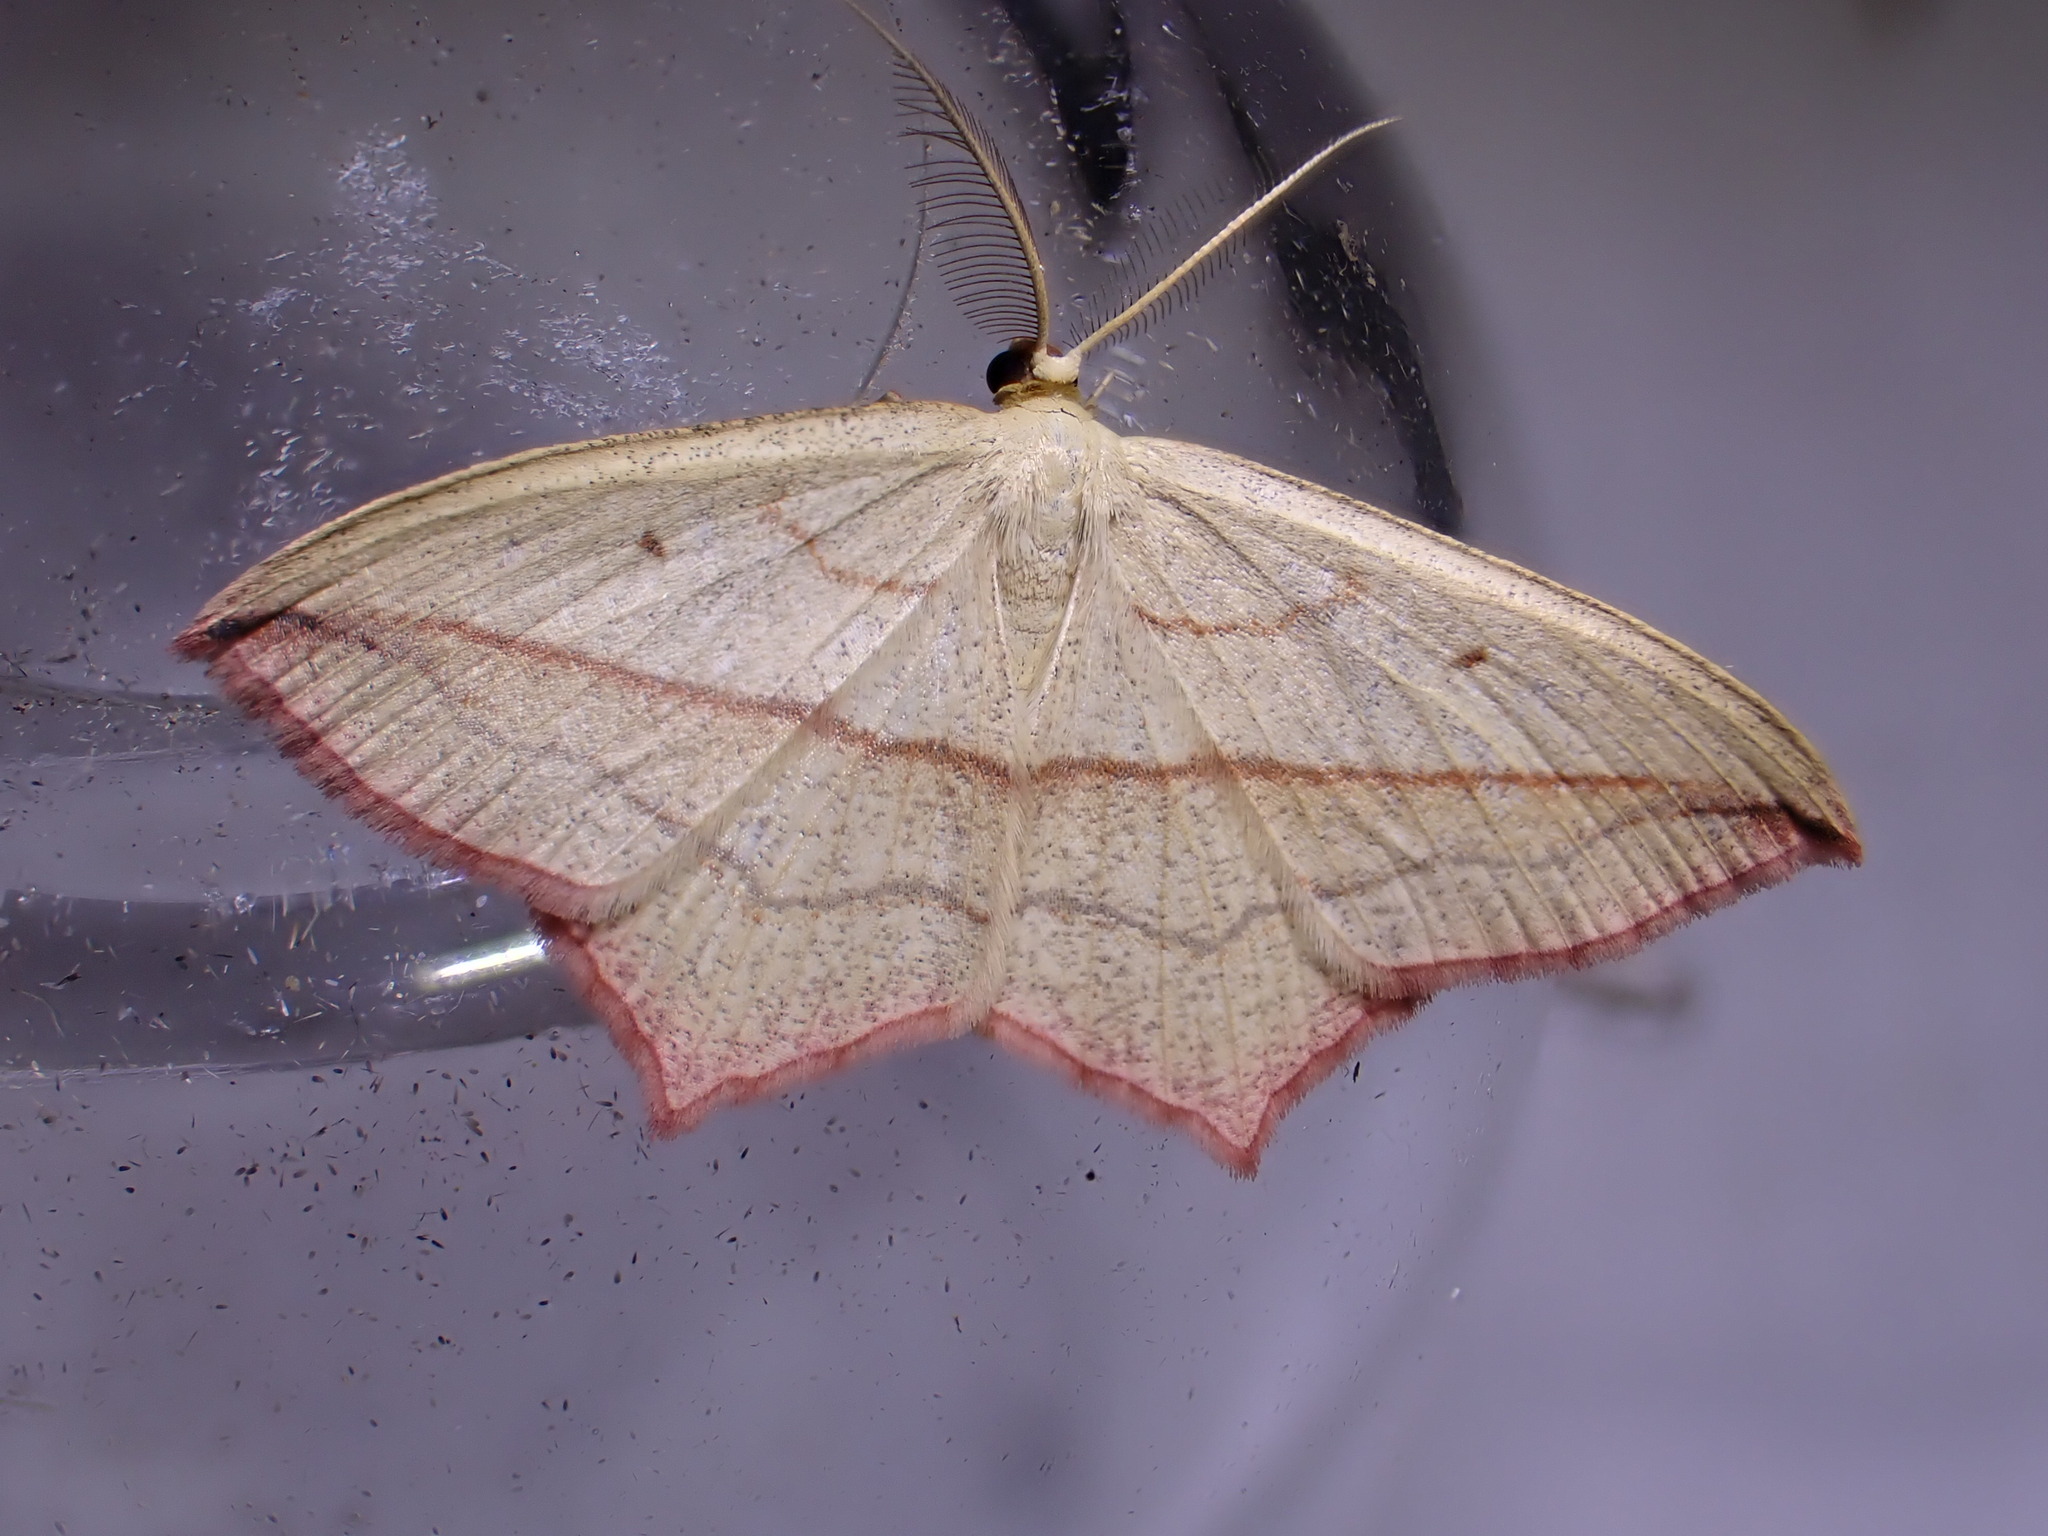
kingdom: Animalia
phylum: Arthropoda
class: Insecta
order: Lepidoptera
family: Geometridae
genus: Timandra
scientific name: Timandra comae
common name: Blood-vein
